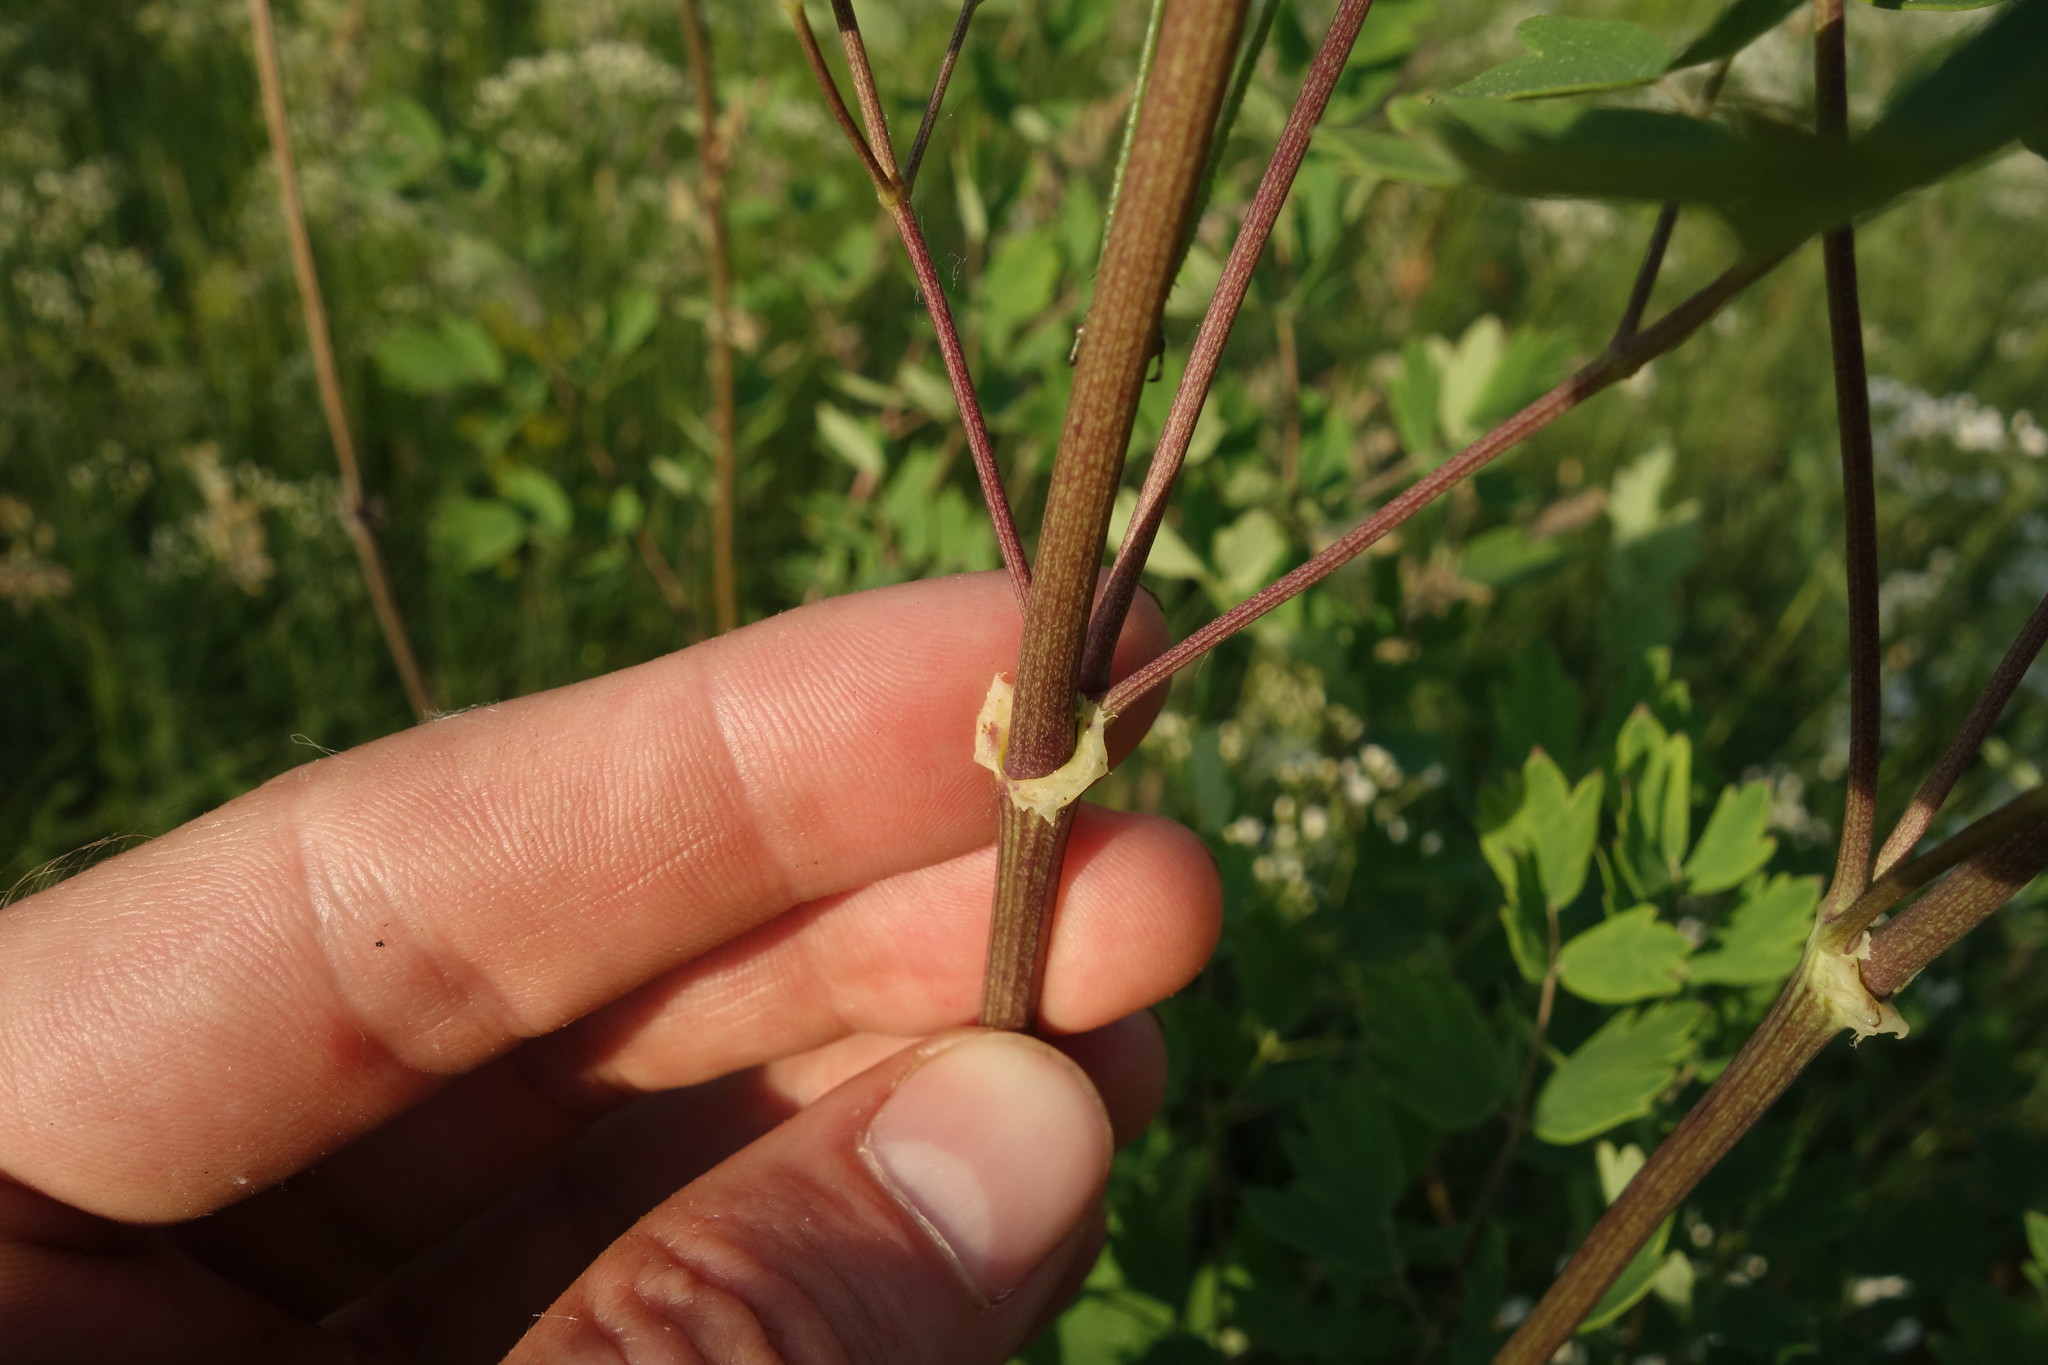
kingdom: Plantae
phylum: Tracheophyta
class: Magnoliopsida
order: Ranunculales
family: Ranunculaceae
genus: Thalictrum
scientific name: Thalictrum minus
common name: Lesser meadow-rue
